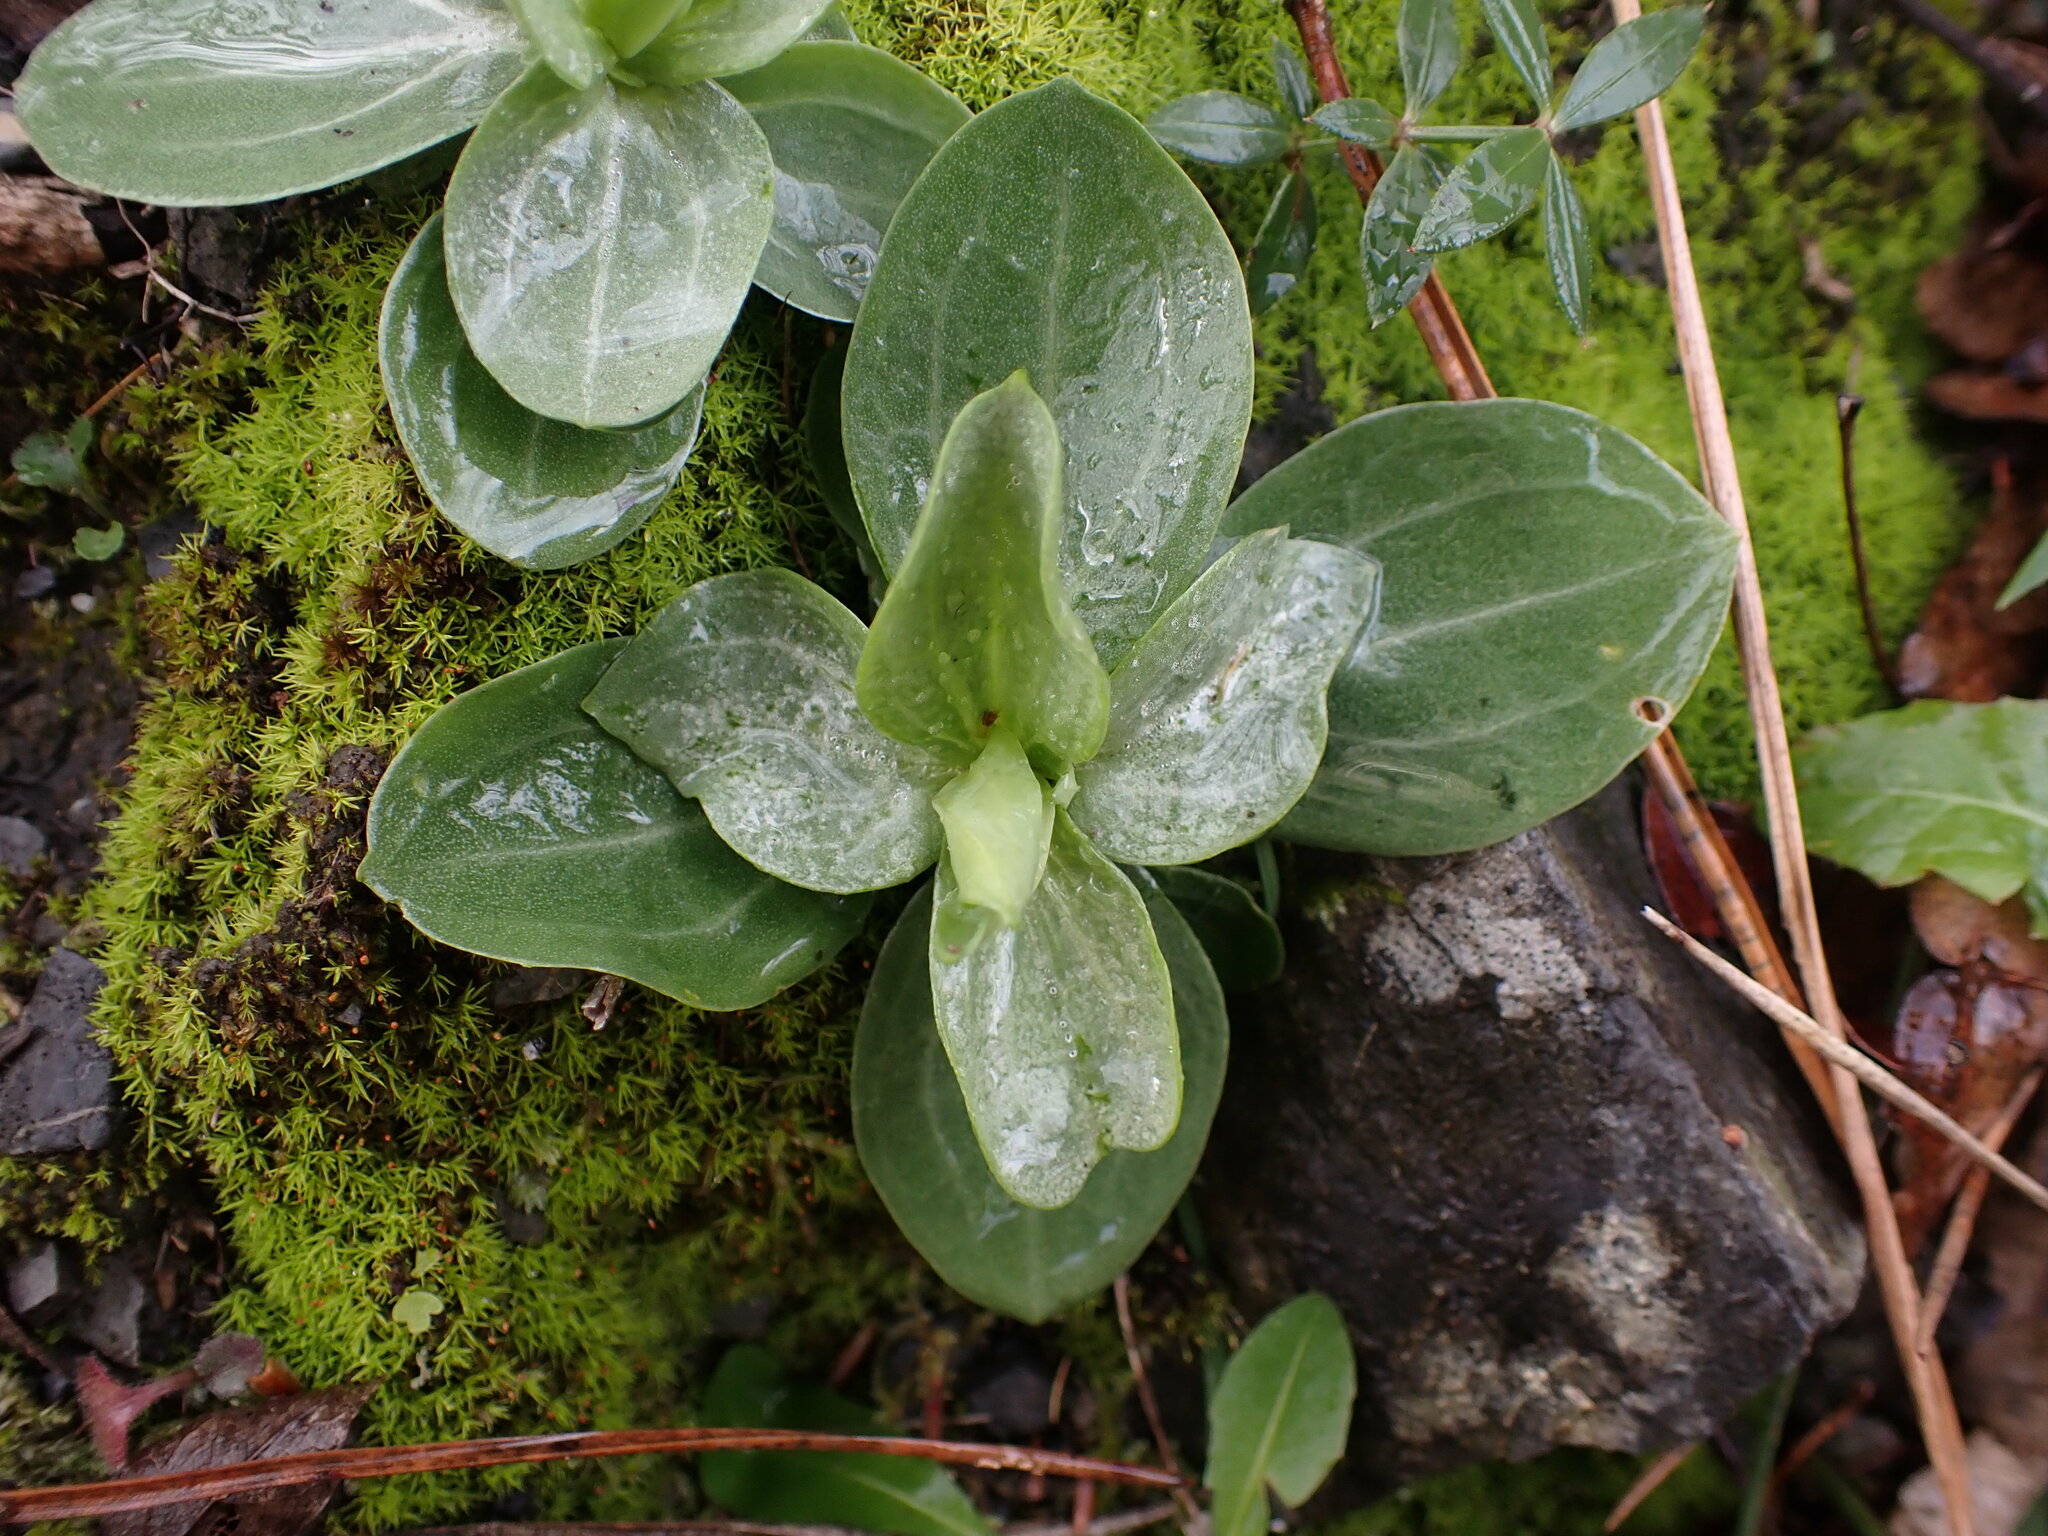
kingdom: Plantae
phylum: Tracheophyta
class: Magnoliopsida
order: Gentianales
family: Gentianaceae
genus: Blackstonia
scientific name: Blackstonia perfoliata
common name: Yellow-wort
